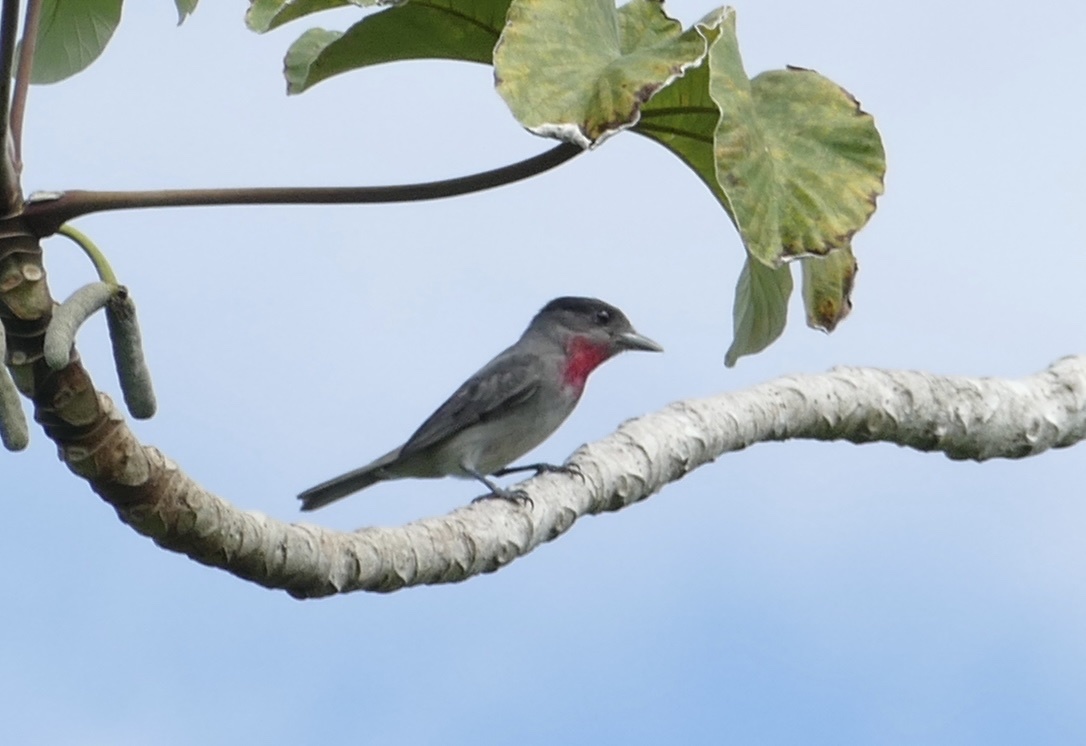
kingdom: Animalia
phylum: Chordata
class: Aves
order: Passeriformes
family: Cotingidae
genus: Pachyramphus
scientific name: Pachyramphus aglaiae
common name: Rose-throated becard
